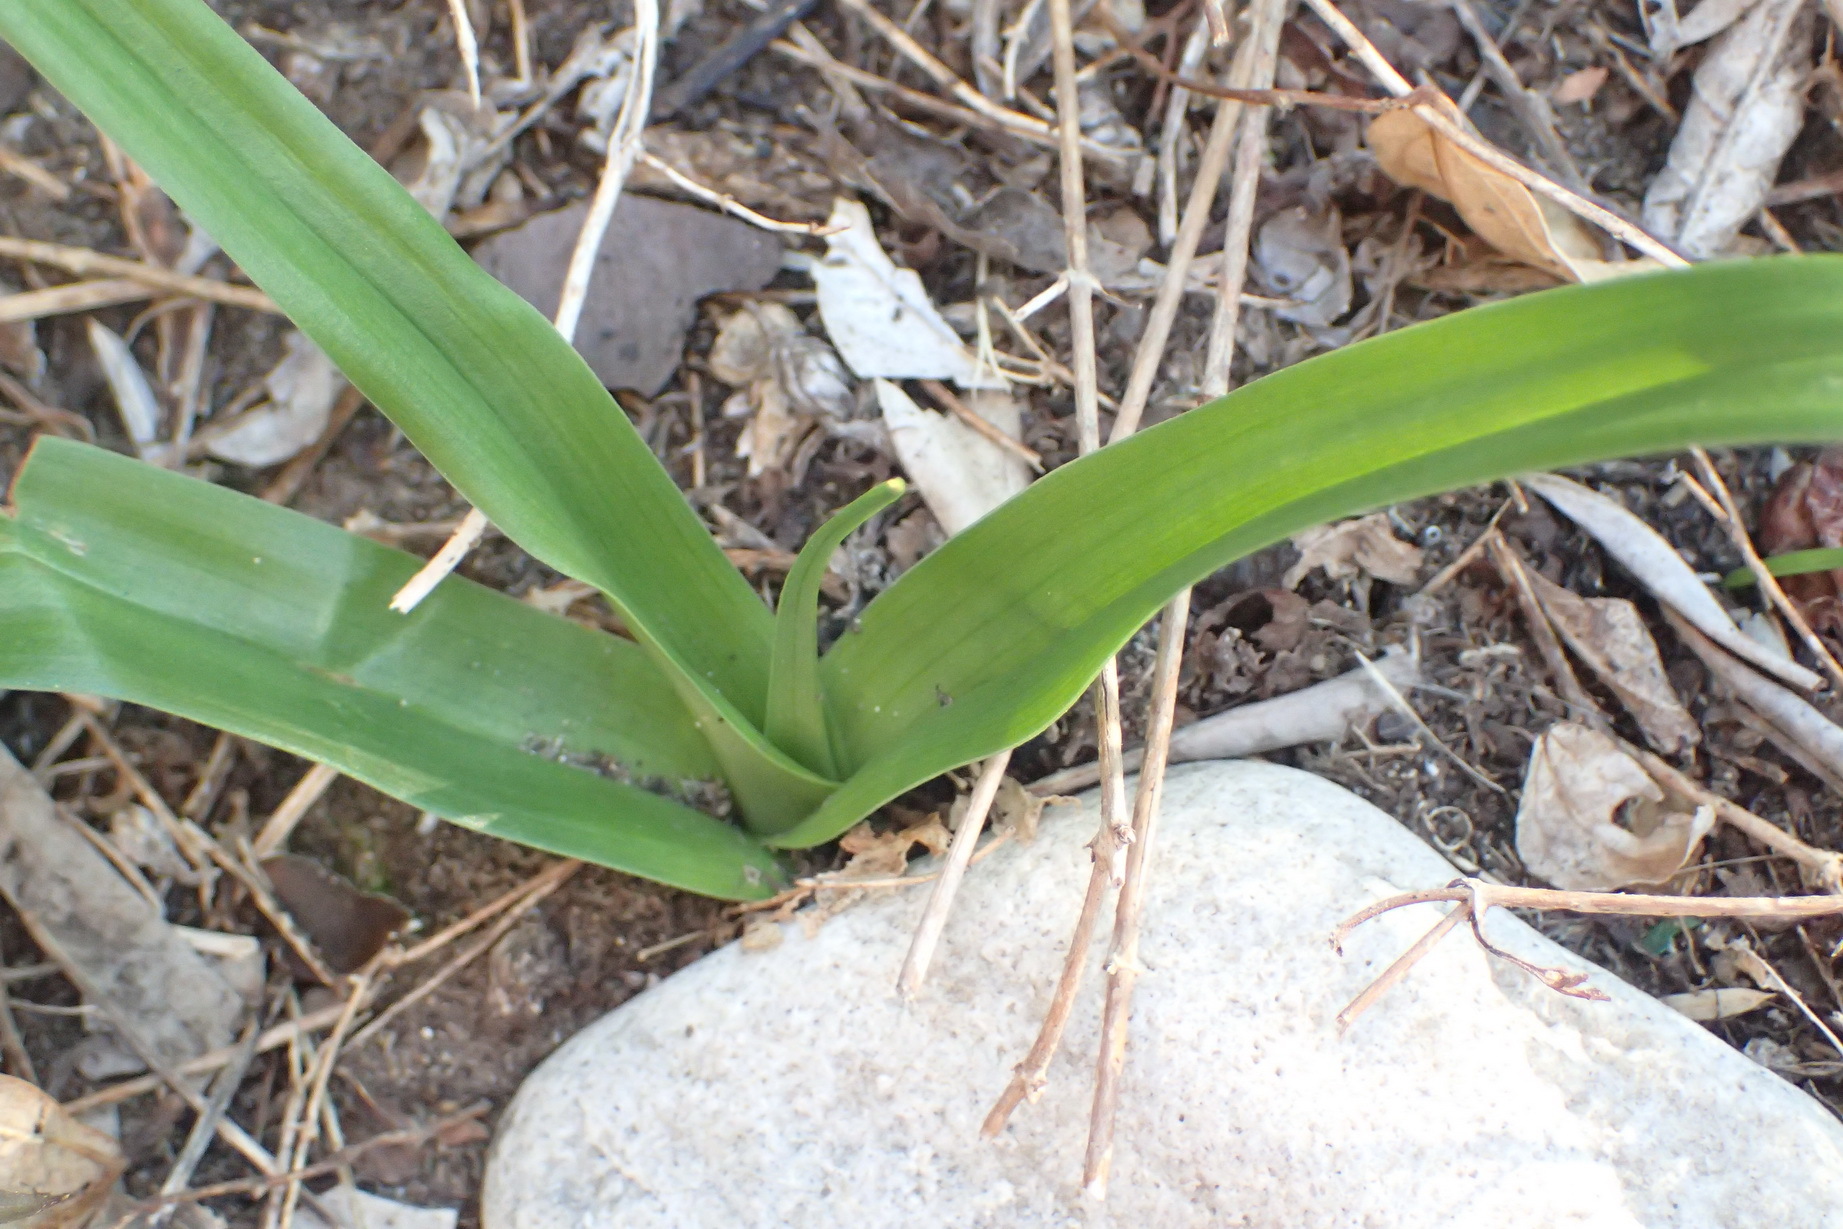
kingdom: Plantae
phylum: Tracheophyta
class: Liliopsida
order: Liliales
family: Colchicaceae
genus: Colchicum
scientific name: Colchicum longipes
